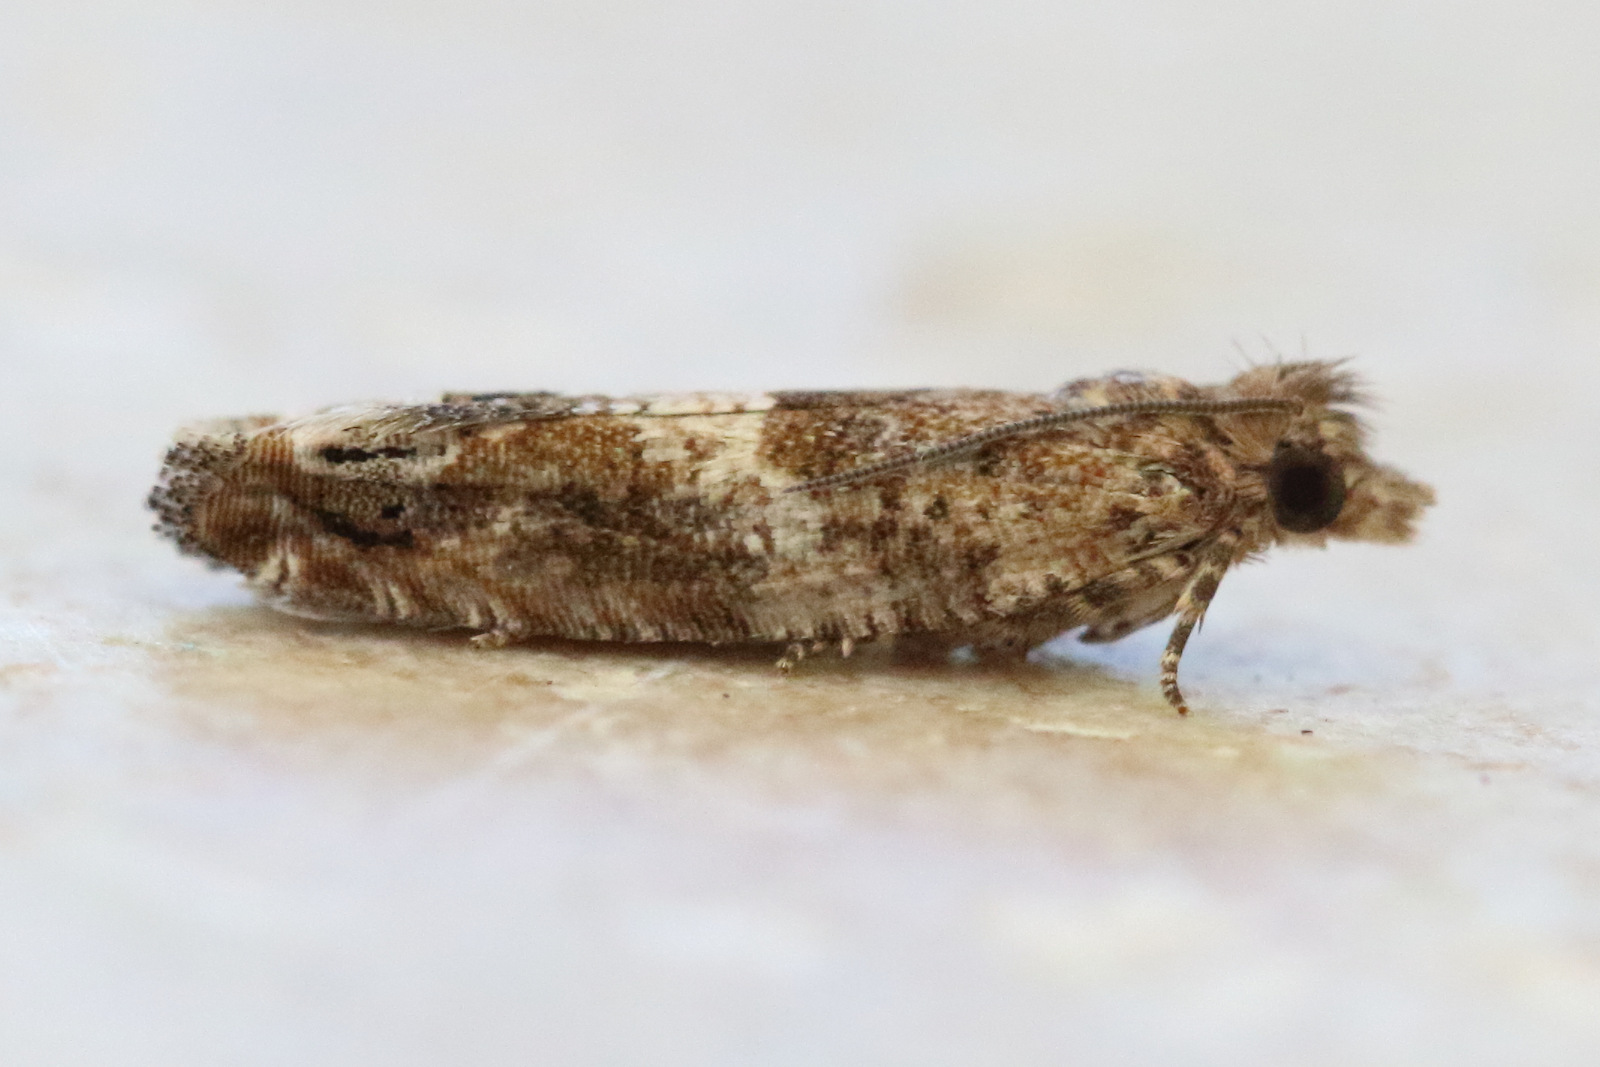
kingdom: Animalia
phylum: Arthropoda
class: Insecta
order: Lepidoptera
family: Tortricidae
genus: Crocidosema
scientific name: Crocidosema plebejana
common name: Southern bell
